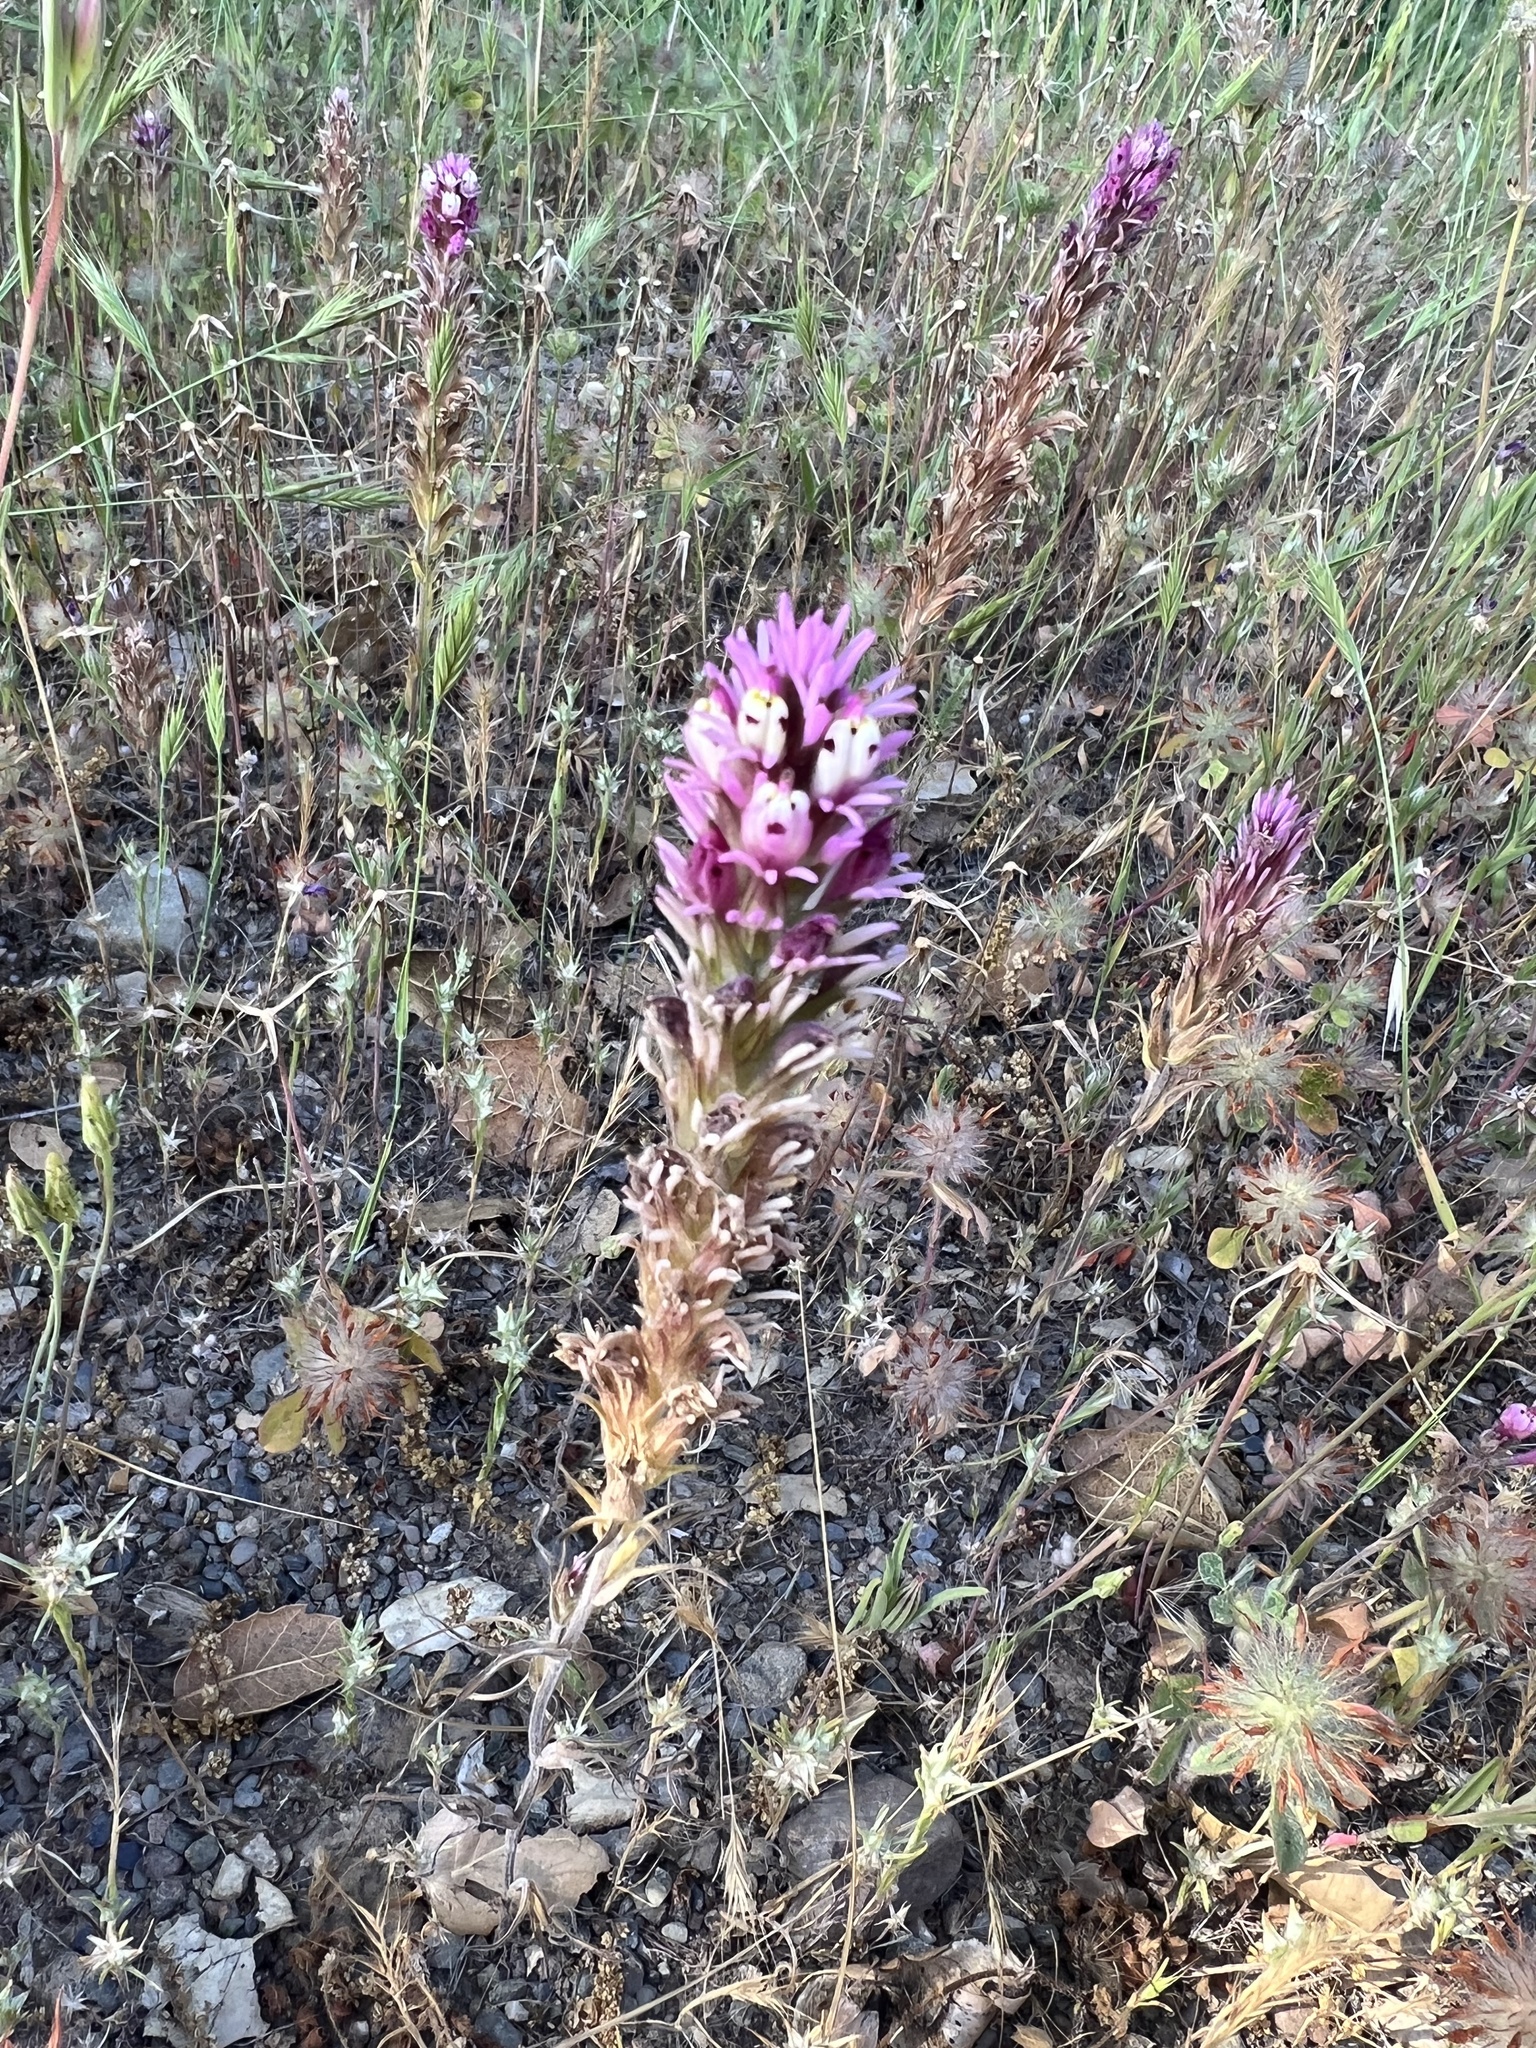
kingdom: Plantae
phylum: Tracheophyta
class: Magnoliopsida
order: Lamiales
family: Orobanchaceae
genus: Castilleja
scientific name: Castilleja densiflora
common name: Dense-flower indian paintbrush
